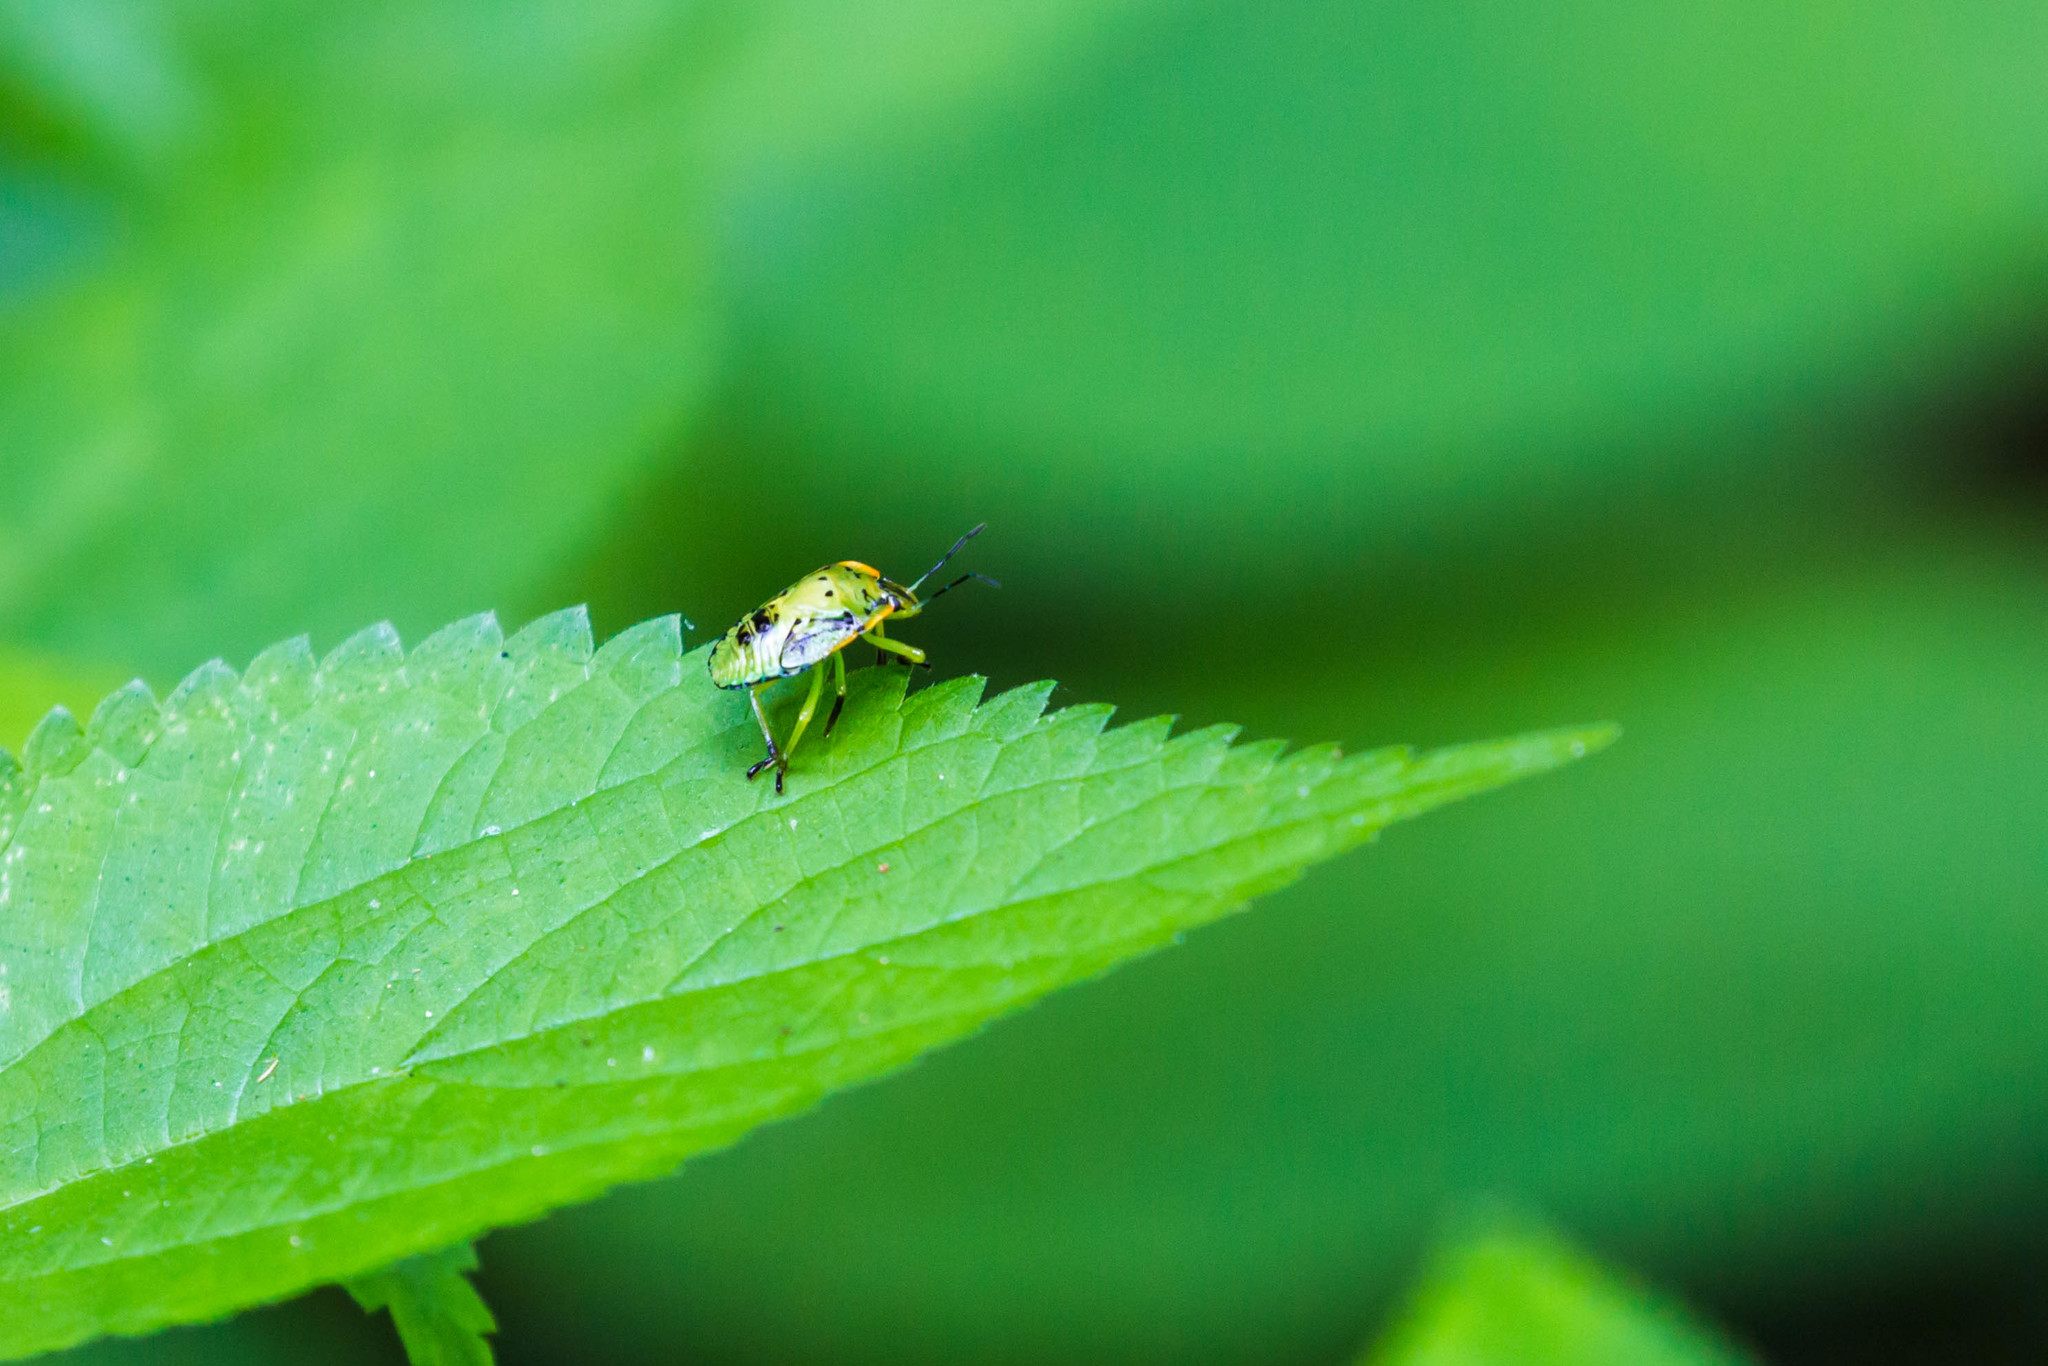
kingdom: Animalia
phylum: Arthropoda
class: Insecta
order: Hemiptera
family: Pentatomidae
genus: Chinavia
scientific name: Chinavia hilaris
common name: Green stink bug
